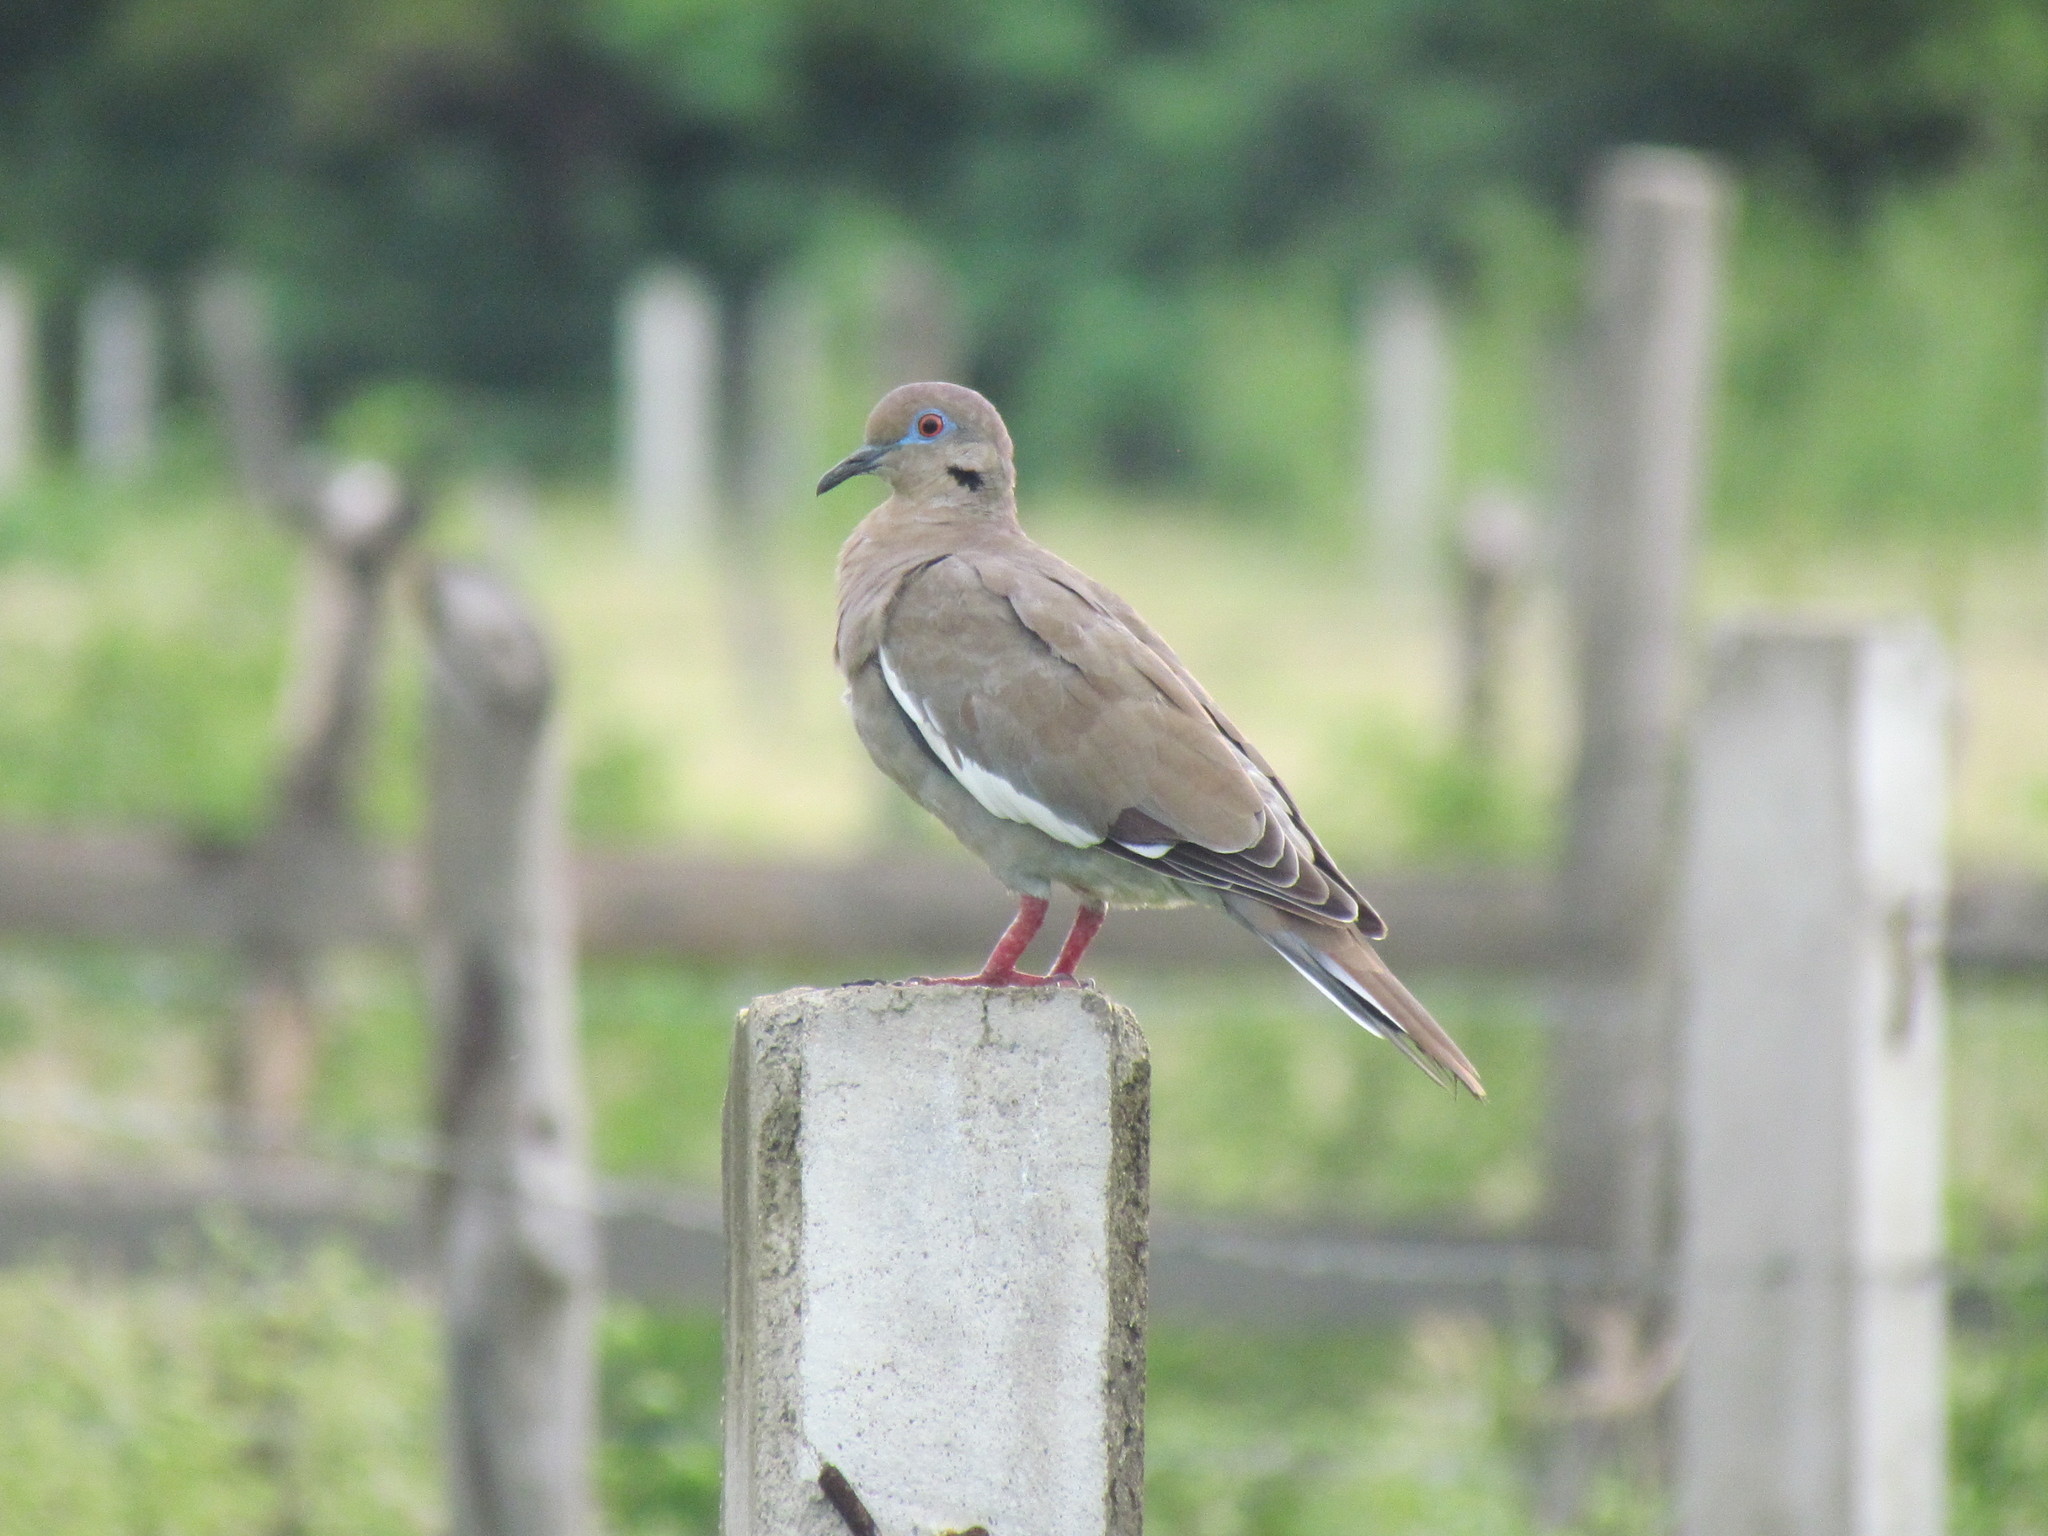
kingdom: Animalia
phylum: Chordata
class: Aves
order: Columbiformes
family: Columbidae
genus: Zenaida
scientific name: Zenaida asiatica
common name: White-winged dove
